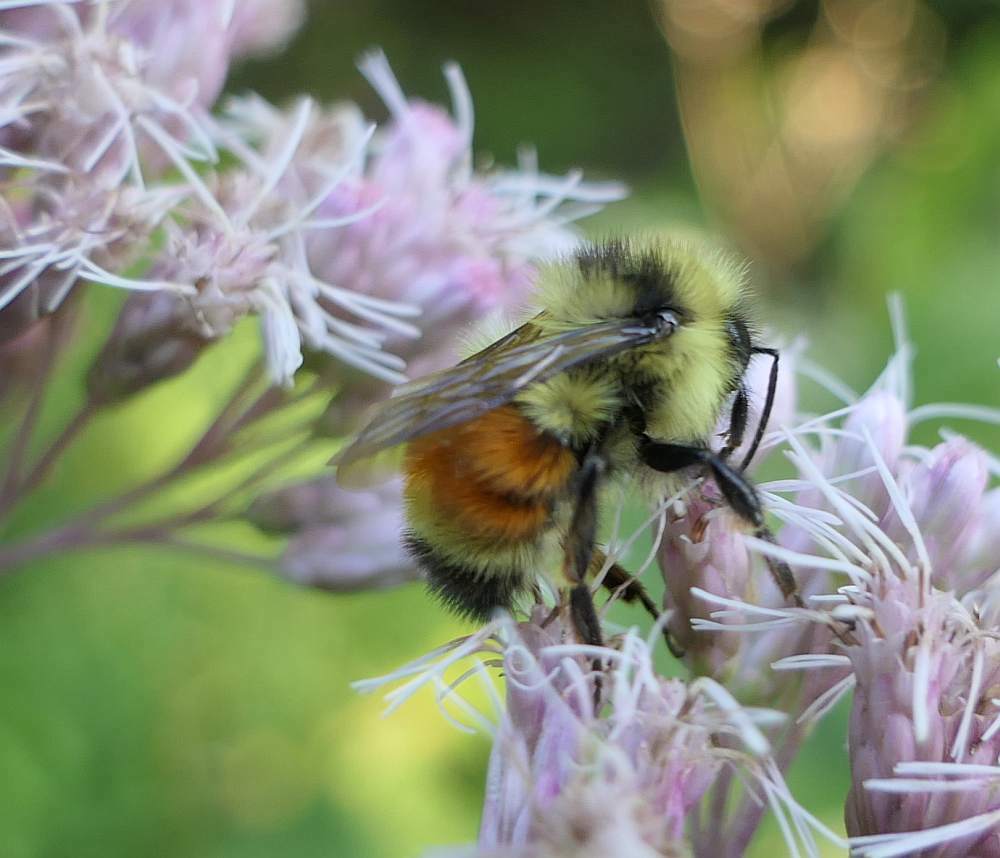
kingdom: Animalia
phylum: Arthropoda
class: Insecta
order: Hymenoptera
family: Apidae
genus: Bombus
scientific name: Bombus ternarius
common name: Tri-colored bumble bee
